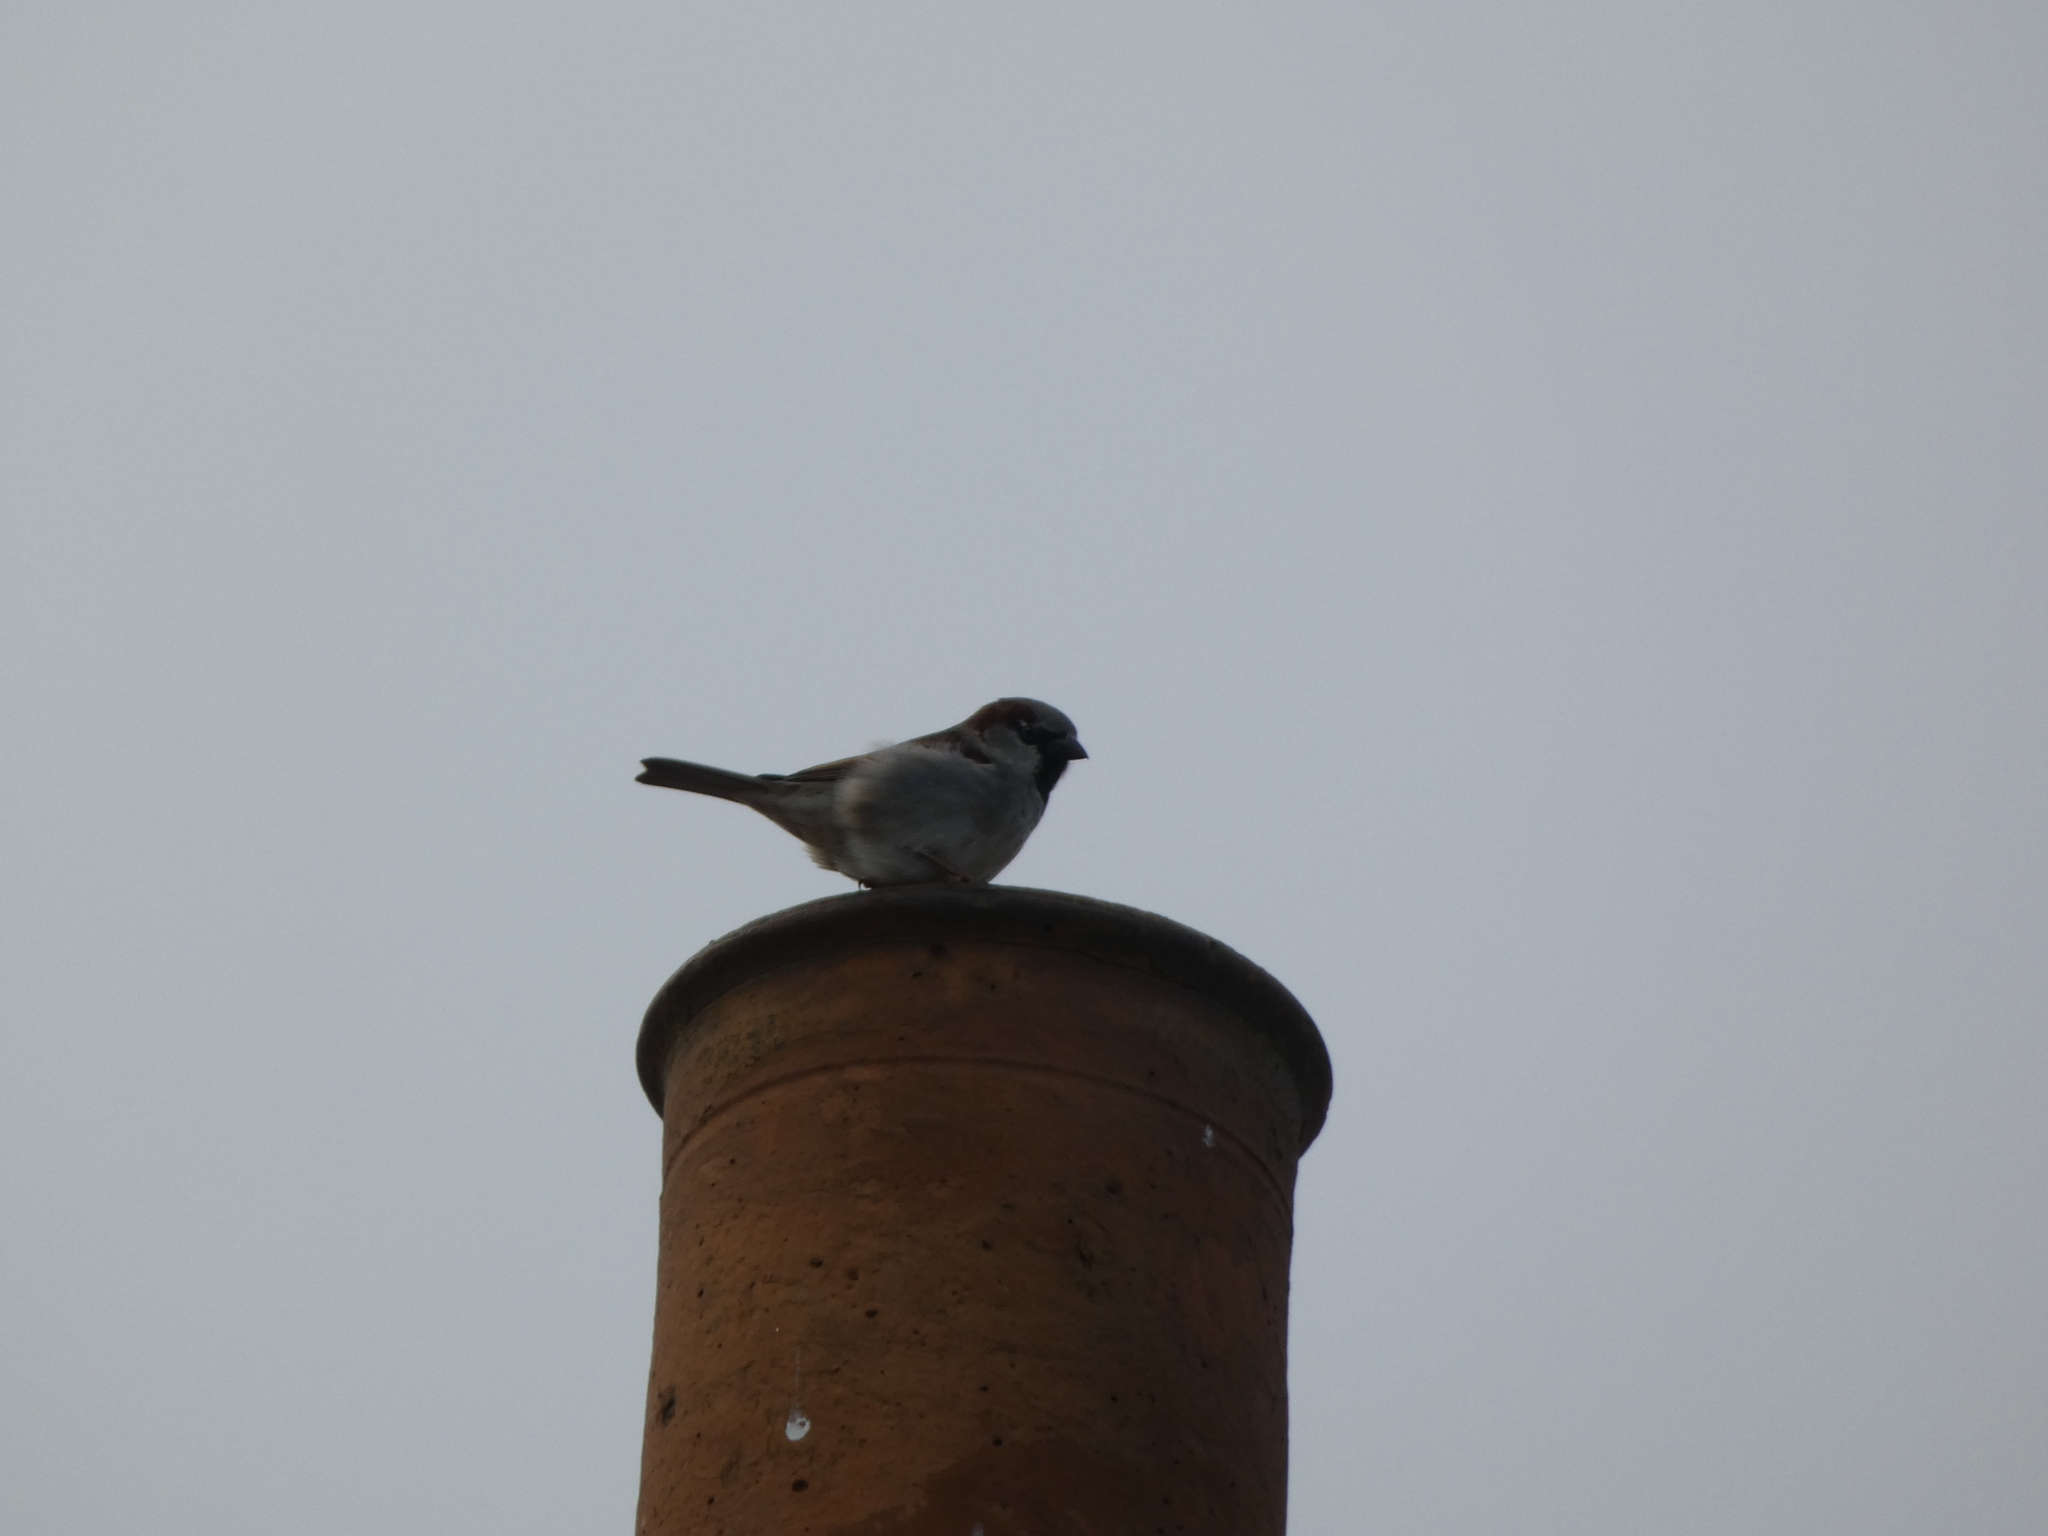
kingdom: Animalia
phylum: Chordata
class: Aves
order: Passeriformes
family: Passeridae
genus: Passer
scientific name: Passer domesticus
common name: House sparrow
